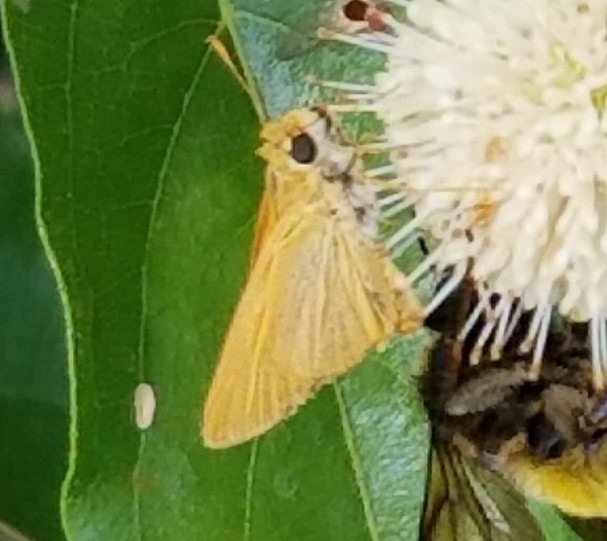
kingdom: Animalia
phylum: Arthropoda
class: Insecta
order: Lepidoptera
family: Hesperiidae
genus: Atrytone
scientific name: Atrytone delaware
